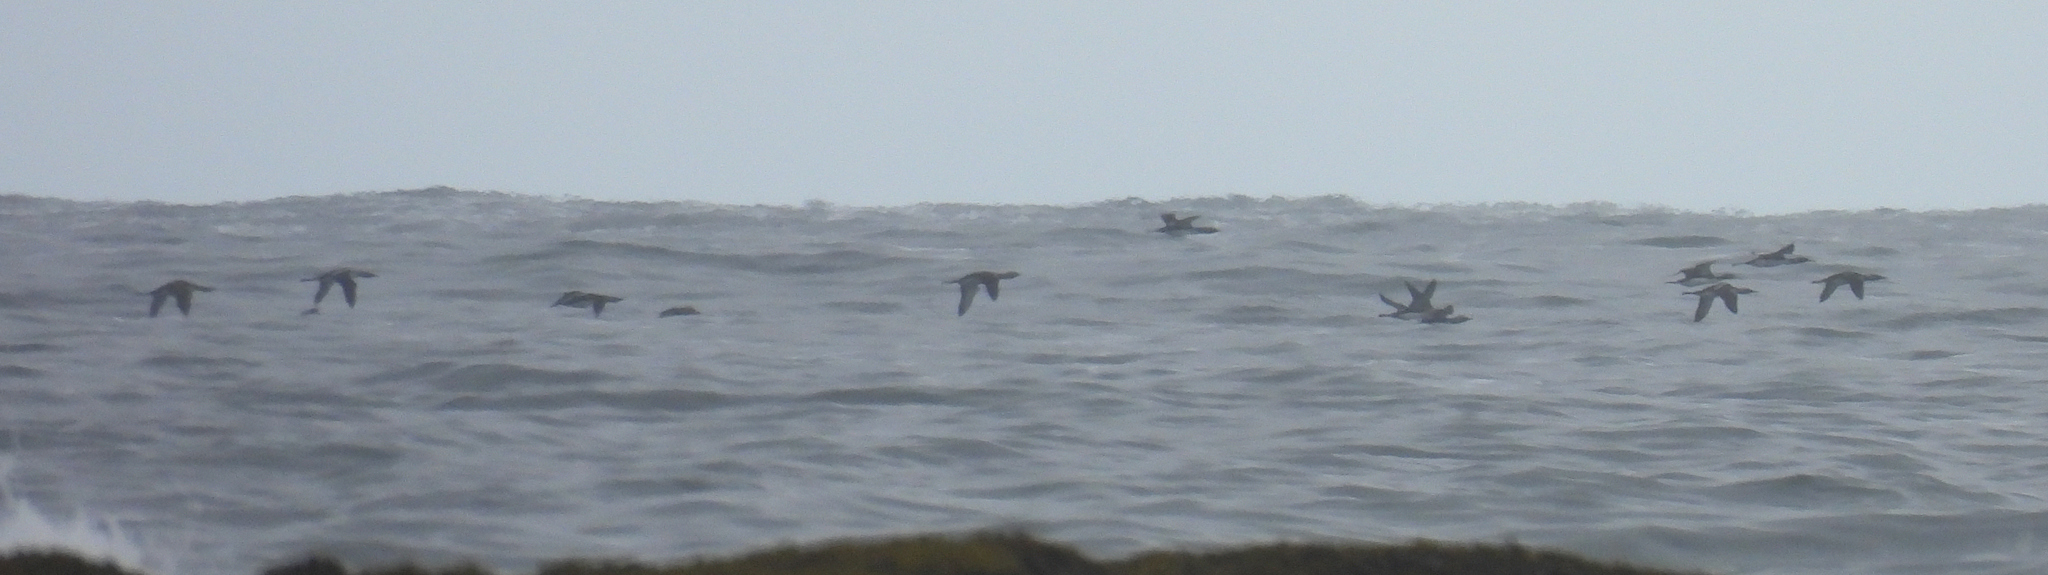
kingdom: Animalia
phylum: Chordata
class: Aves
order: Gaviiformes
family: Gaviidae
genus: Gavia
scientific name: Gavia pacifica
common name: Pacific loon
